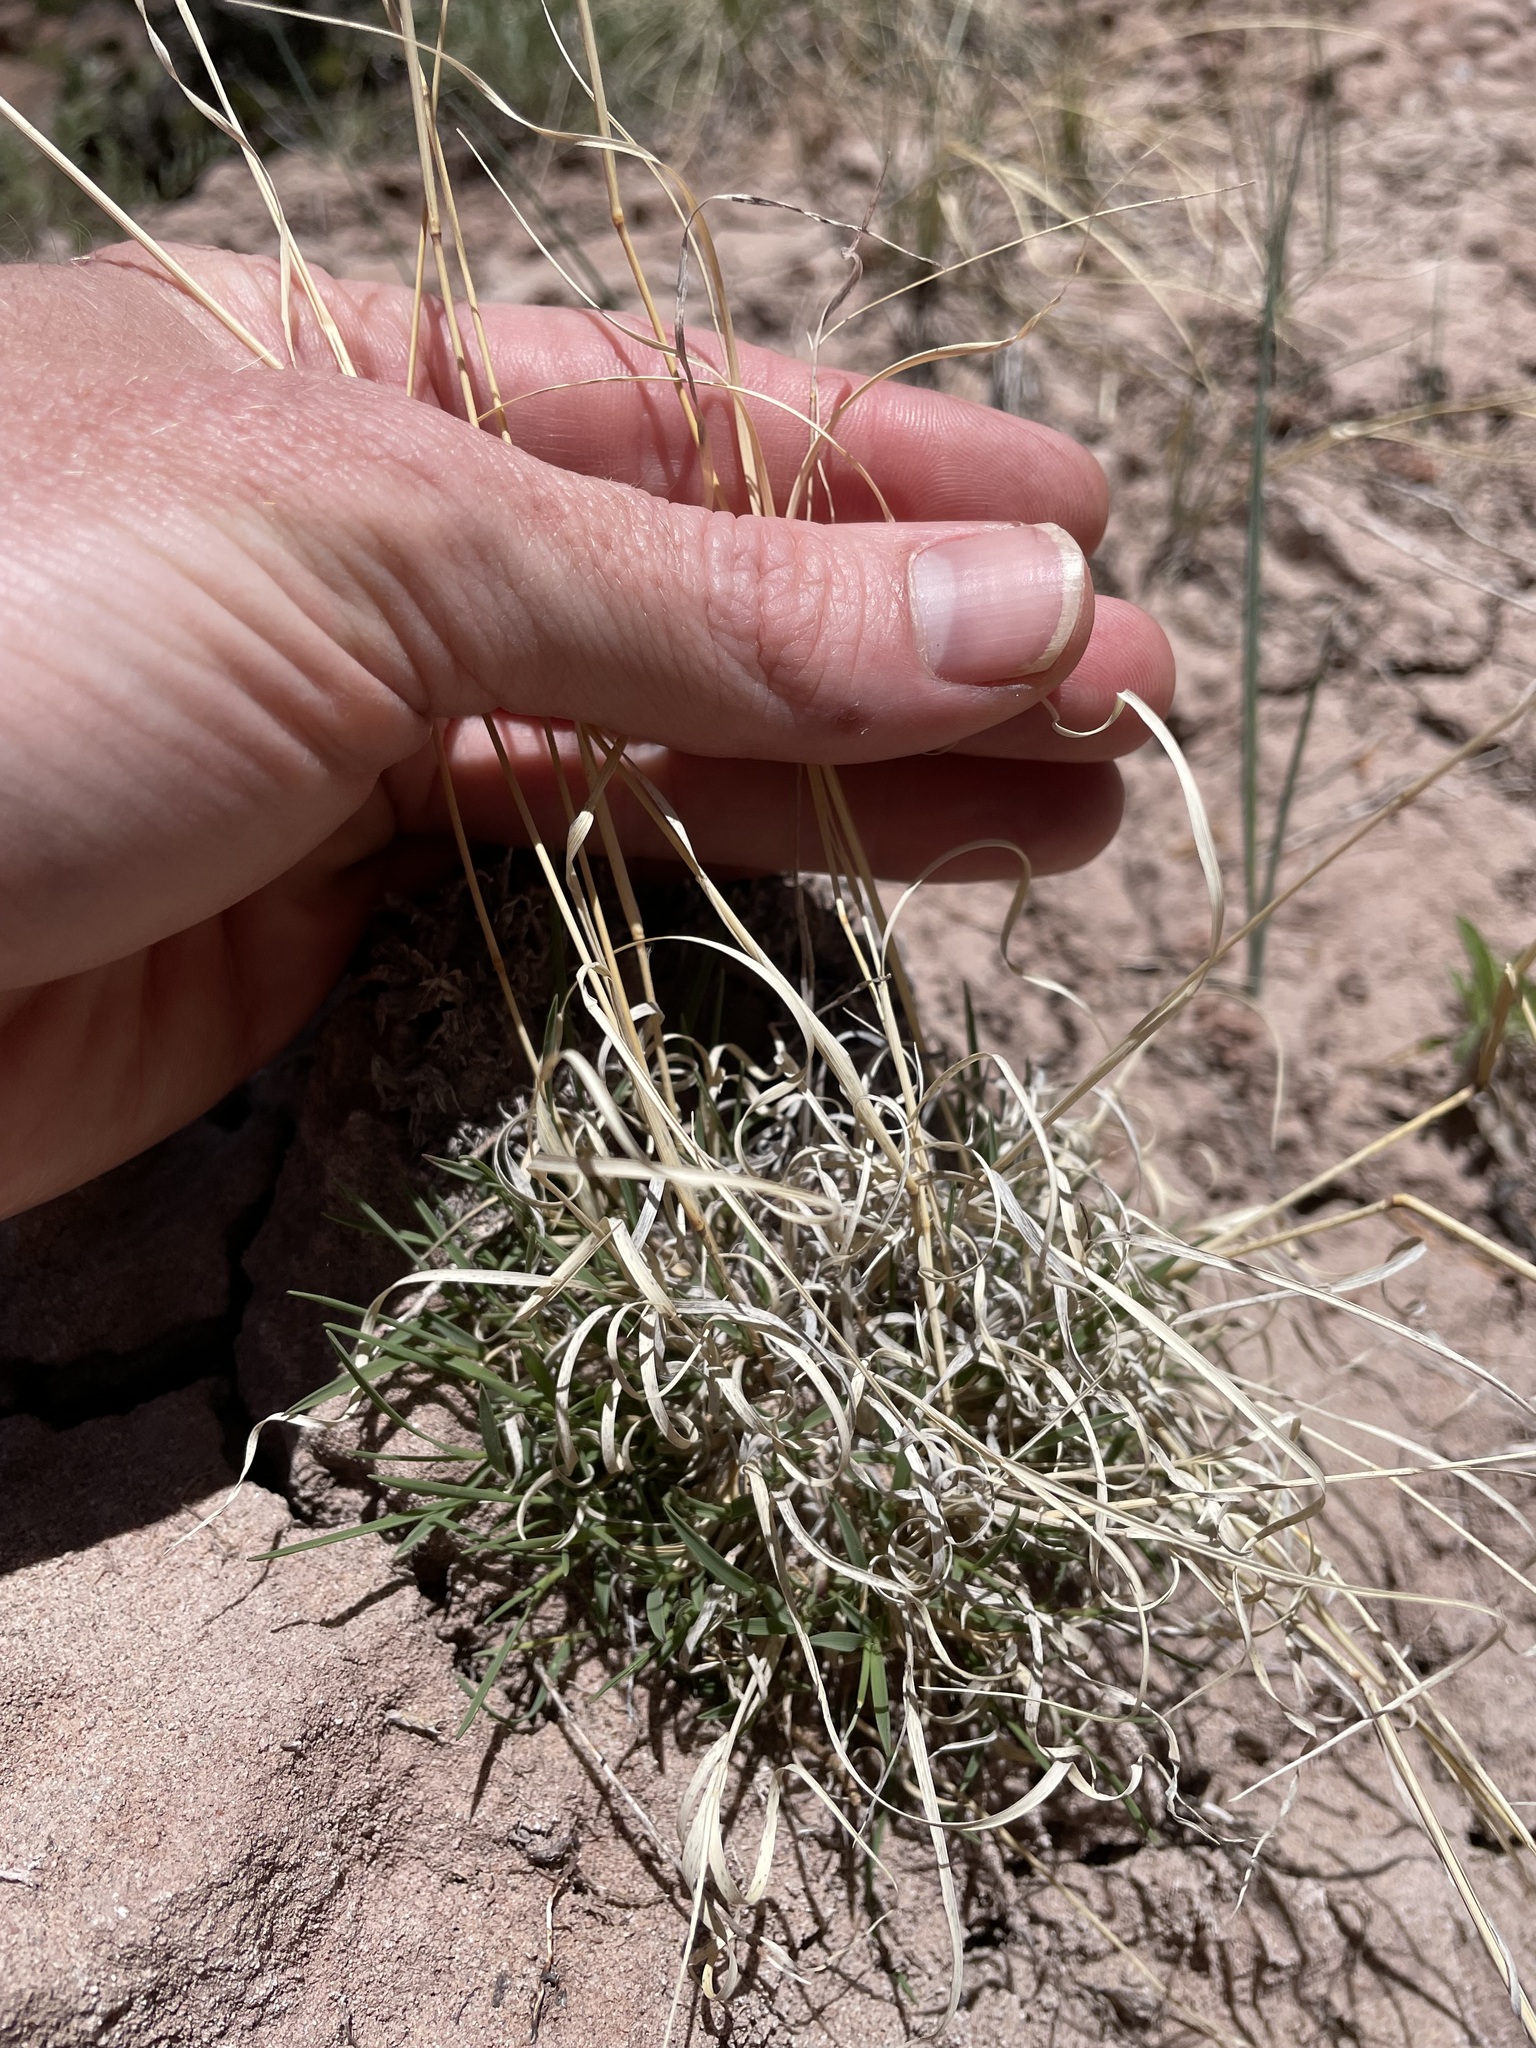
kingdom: Plantae
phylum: Tracheophyta
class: Liliopsida
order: Poales
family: Poaceae
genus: Bouteloua
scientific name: Bouteloua gracilis
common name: Blue grama
